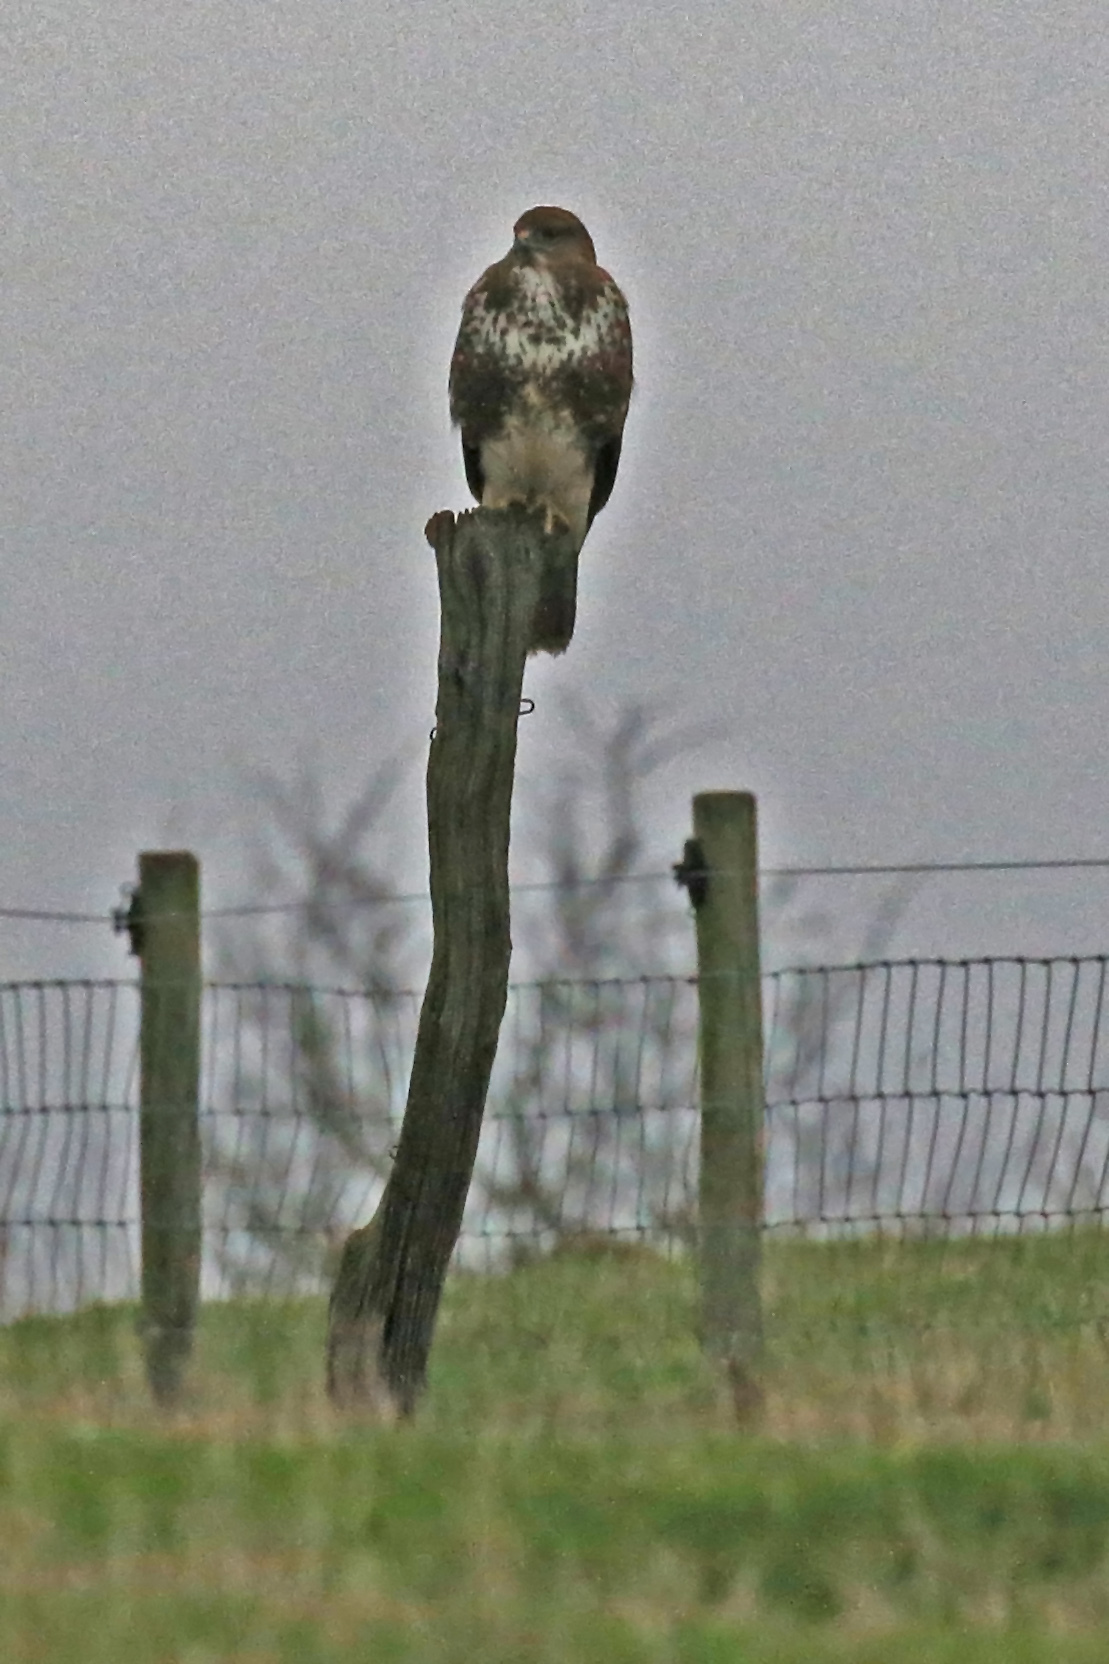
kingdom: Animalia
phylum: Chordata
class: Aves
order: Accipitriformes
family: Accipitridae
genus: Buteo
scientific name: Buteo buteo
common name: Common buzzard
